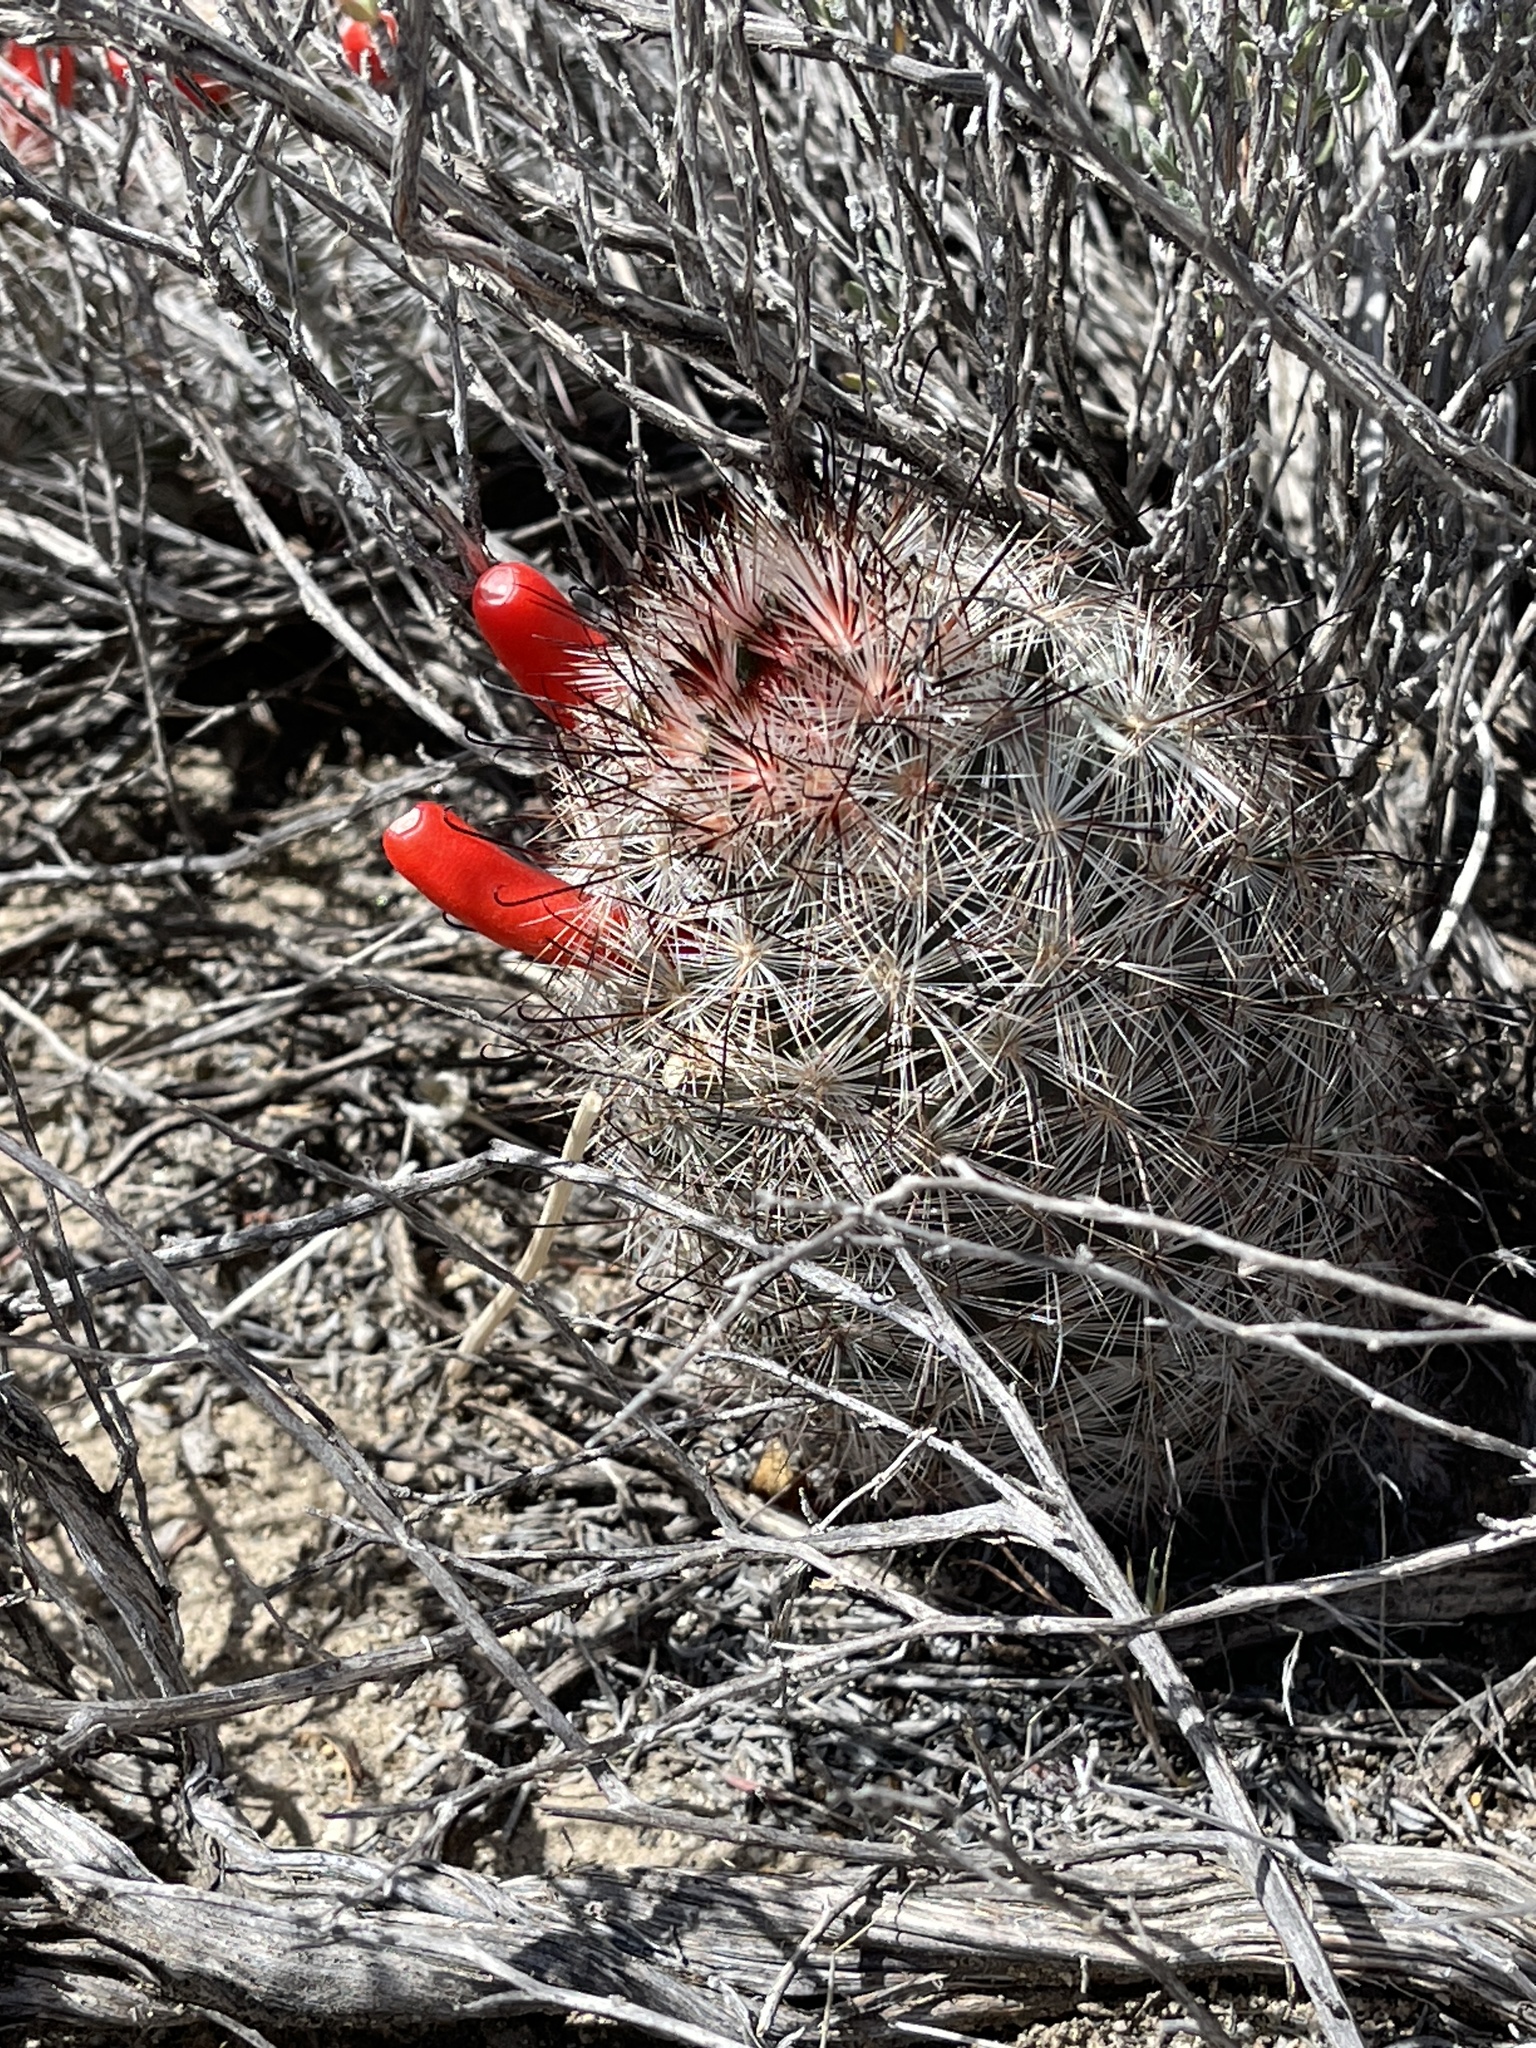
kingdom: Plantae
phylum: Tracheophyta
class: Magnoliopsida
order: Caryophyllales
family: Cactaceae
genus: Cochemiea
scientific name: Cochemiea tetrancistra
